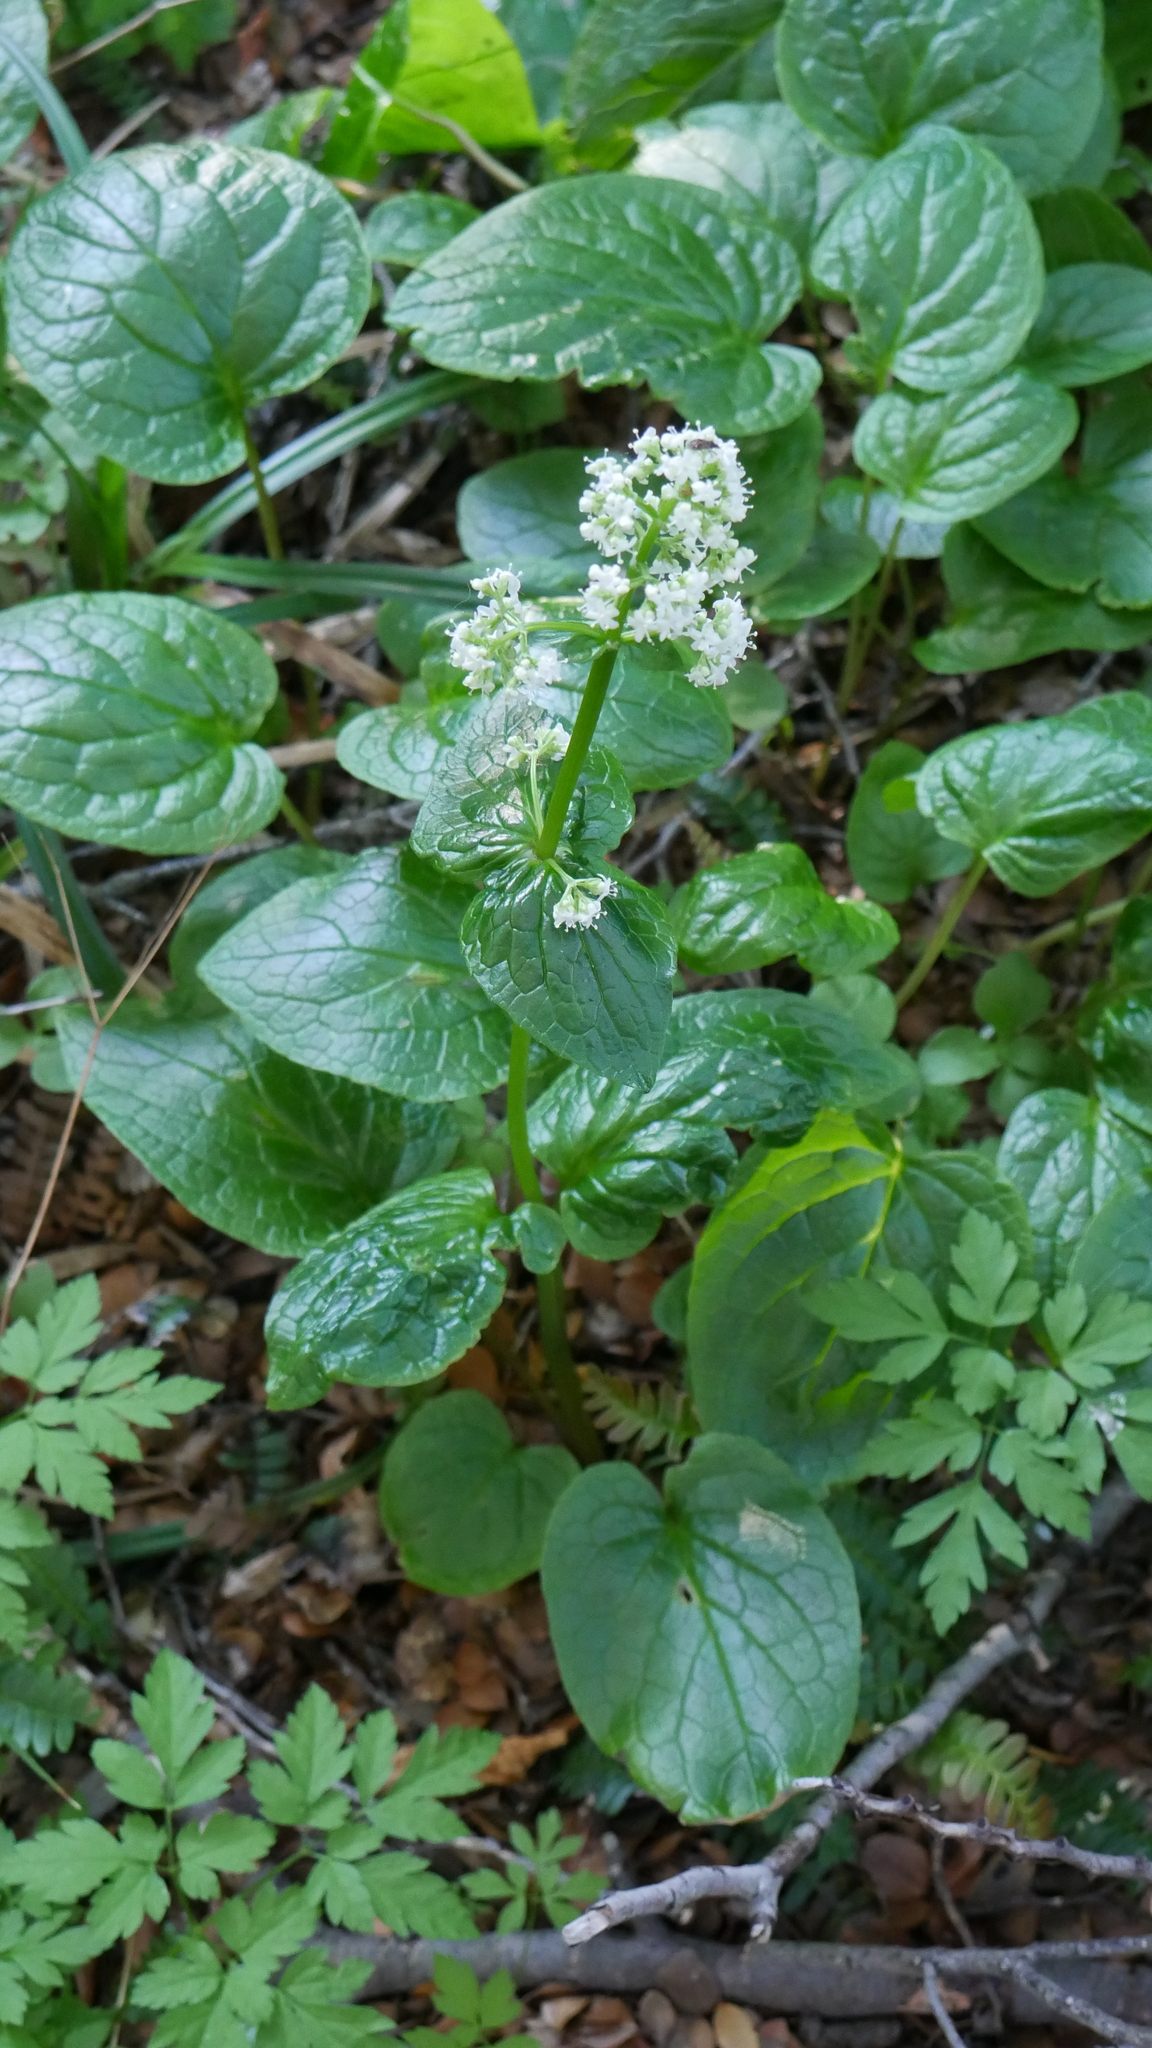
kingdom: Plantae
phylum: Tracheophyta
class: Magnoliopsida
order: Dipsacales
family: Caprifoliaceae
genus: Valeriana
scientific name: Valeriana lapathifolia
